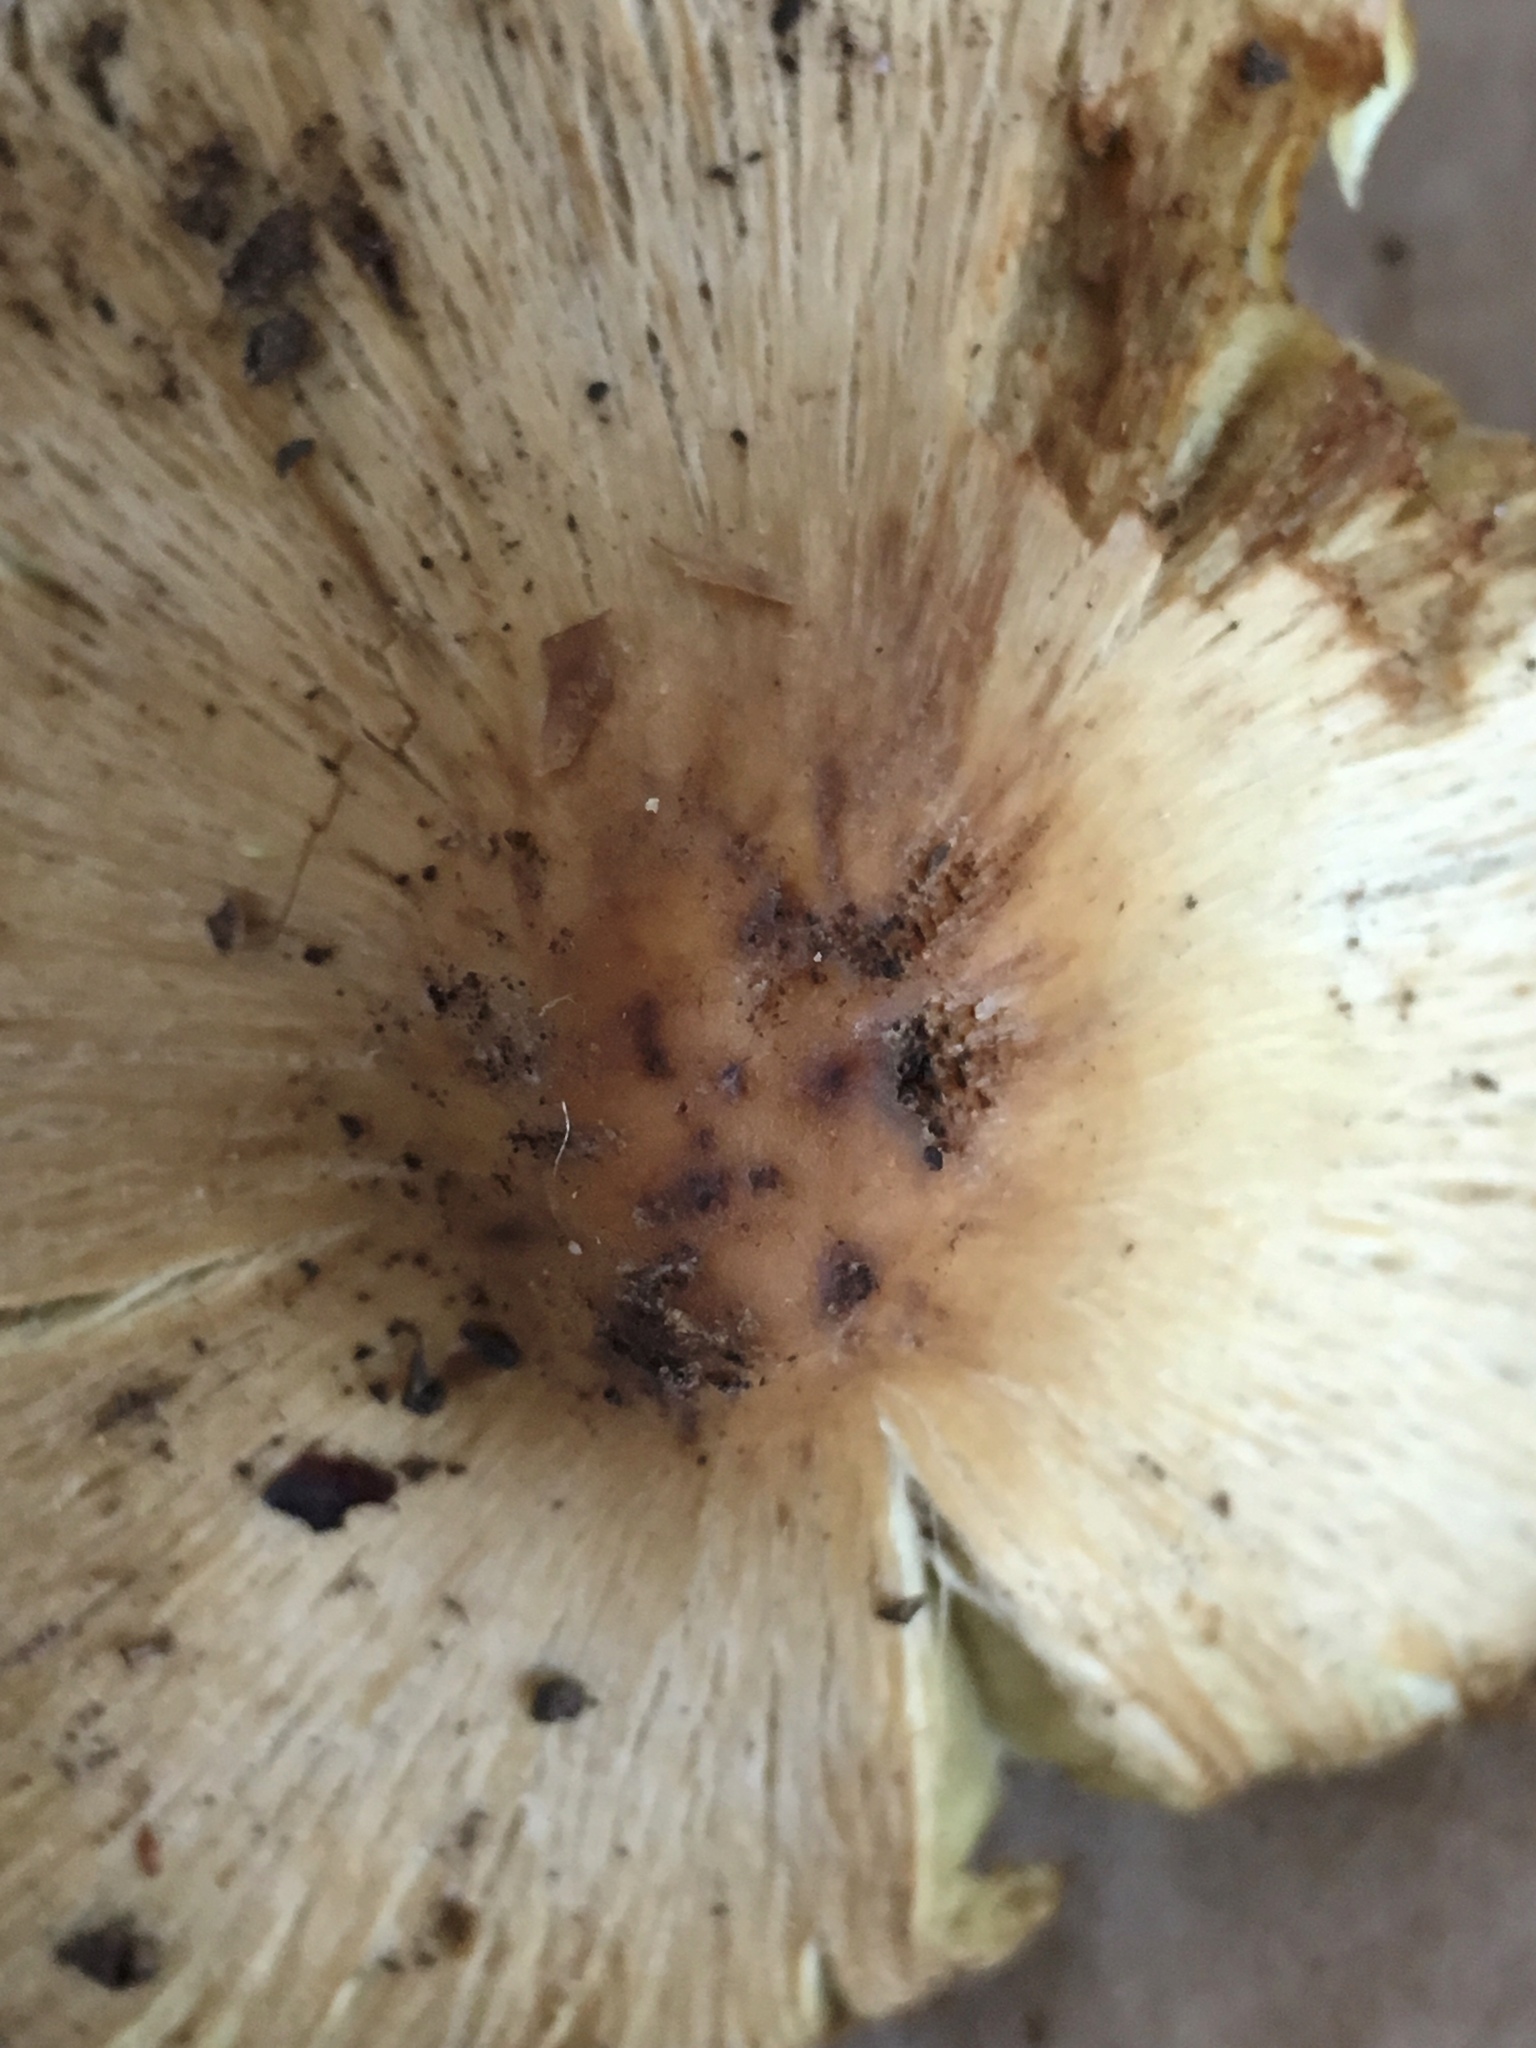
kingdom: Fungi
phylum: Basidiomycota
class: Agaricomycetes
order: Agaricales
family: Inocybaceae
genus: Pseudosperma
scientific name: Pseudosperma rimosum
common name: Split fibrecap
